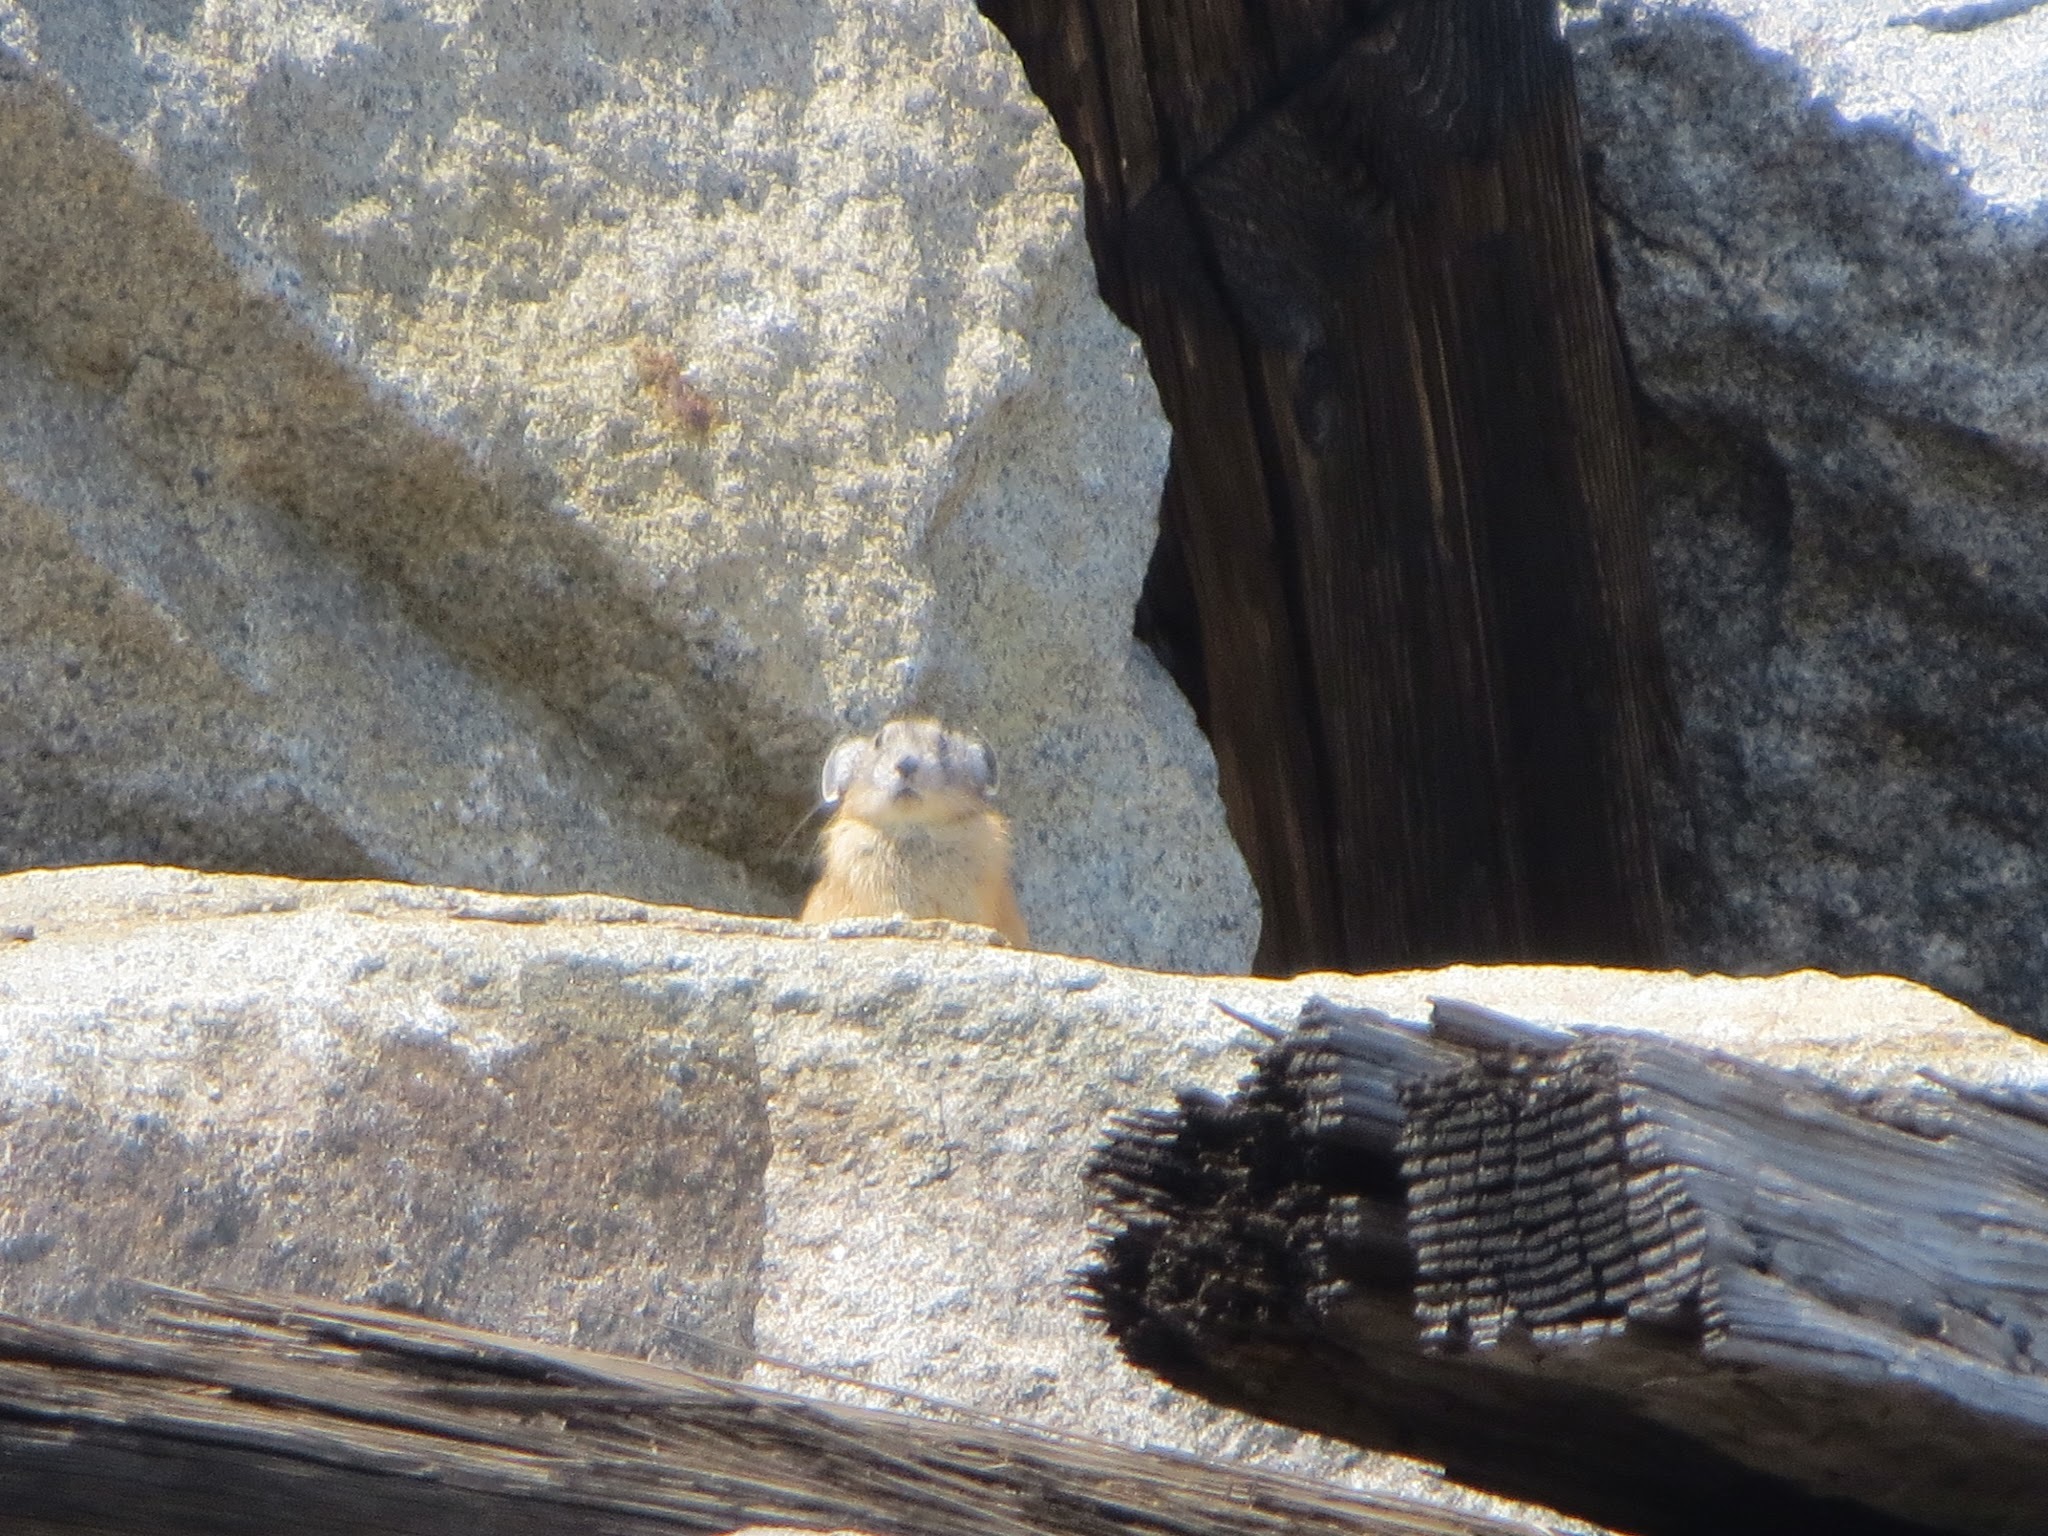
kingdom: Animalia
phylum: Chordata
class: Mammalia
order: Lagomorpha
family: Ochotonidae
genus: Ochotona
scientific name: Ochotona princeps
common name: American pika
